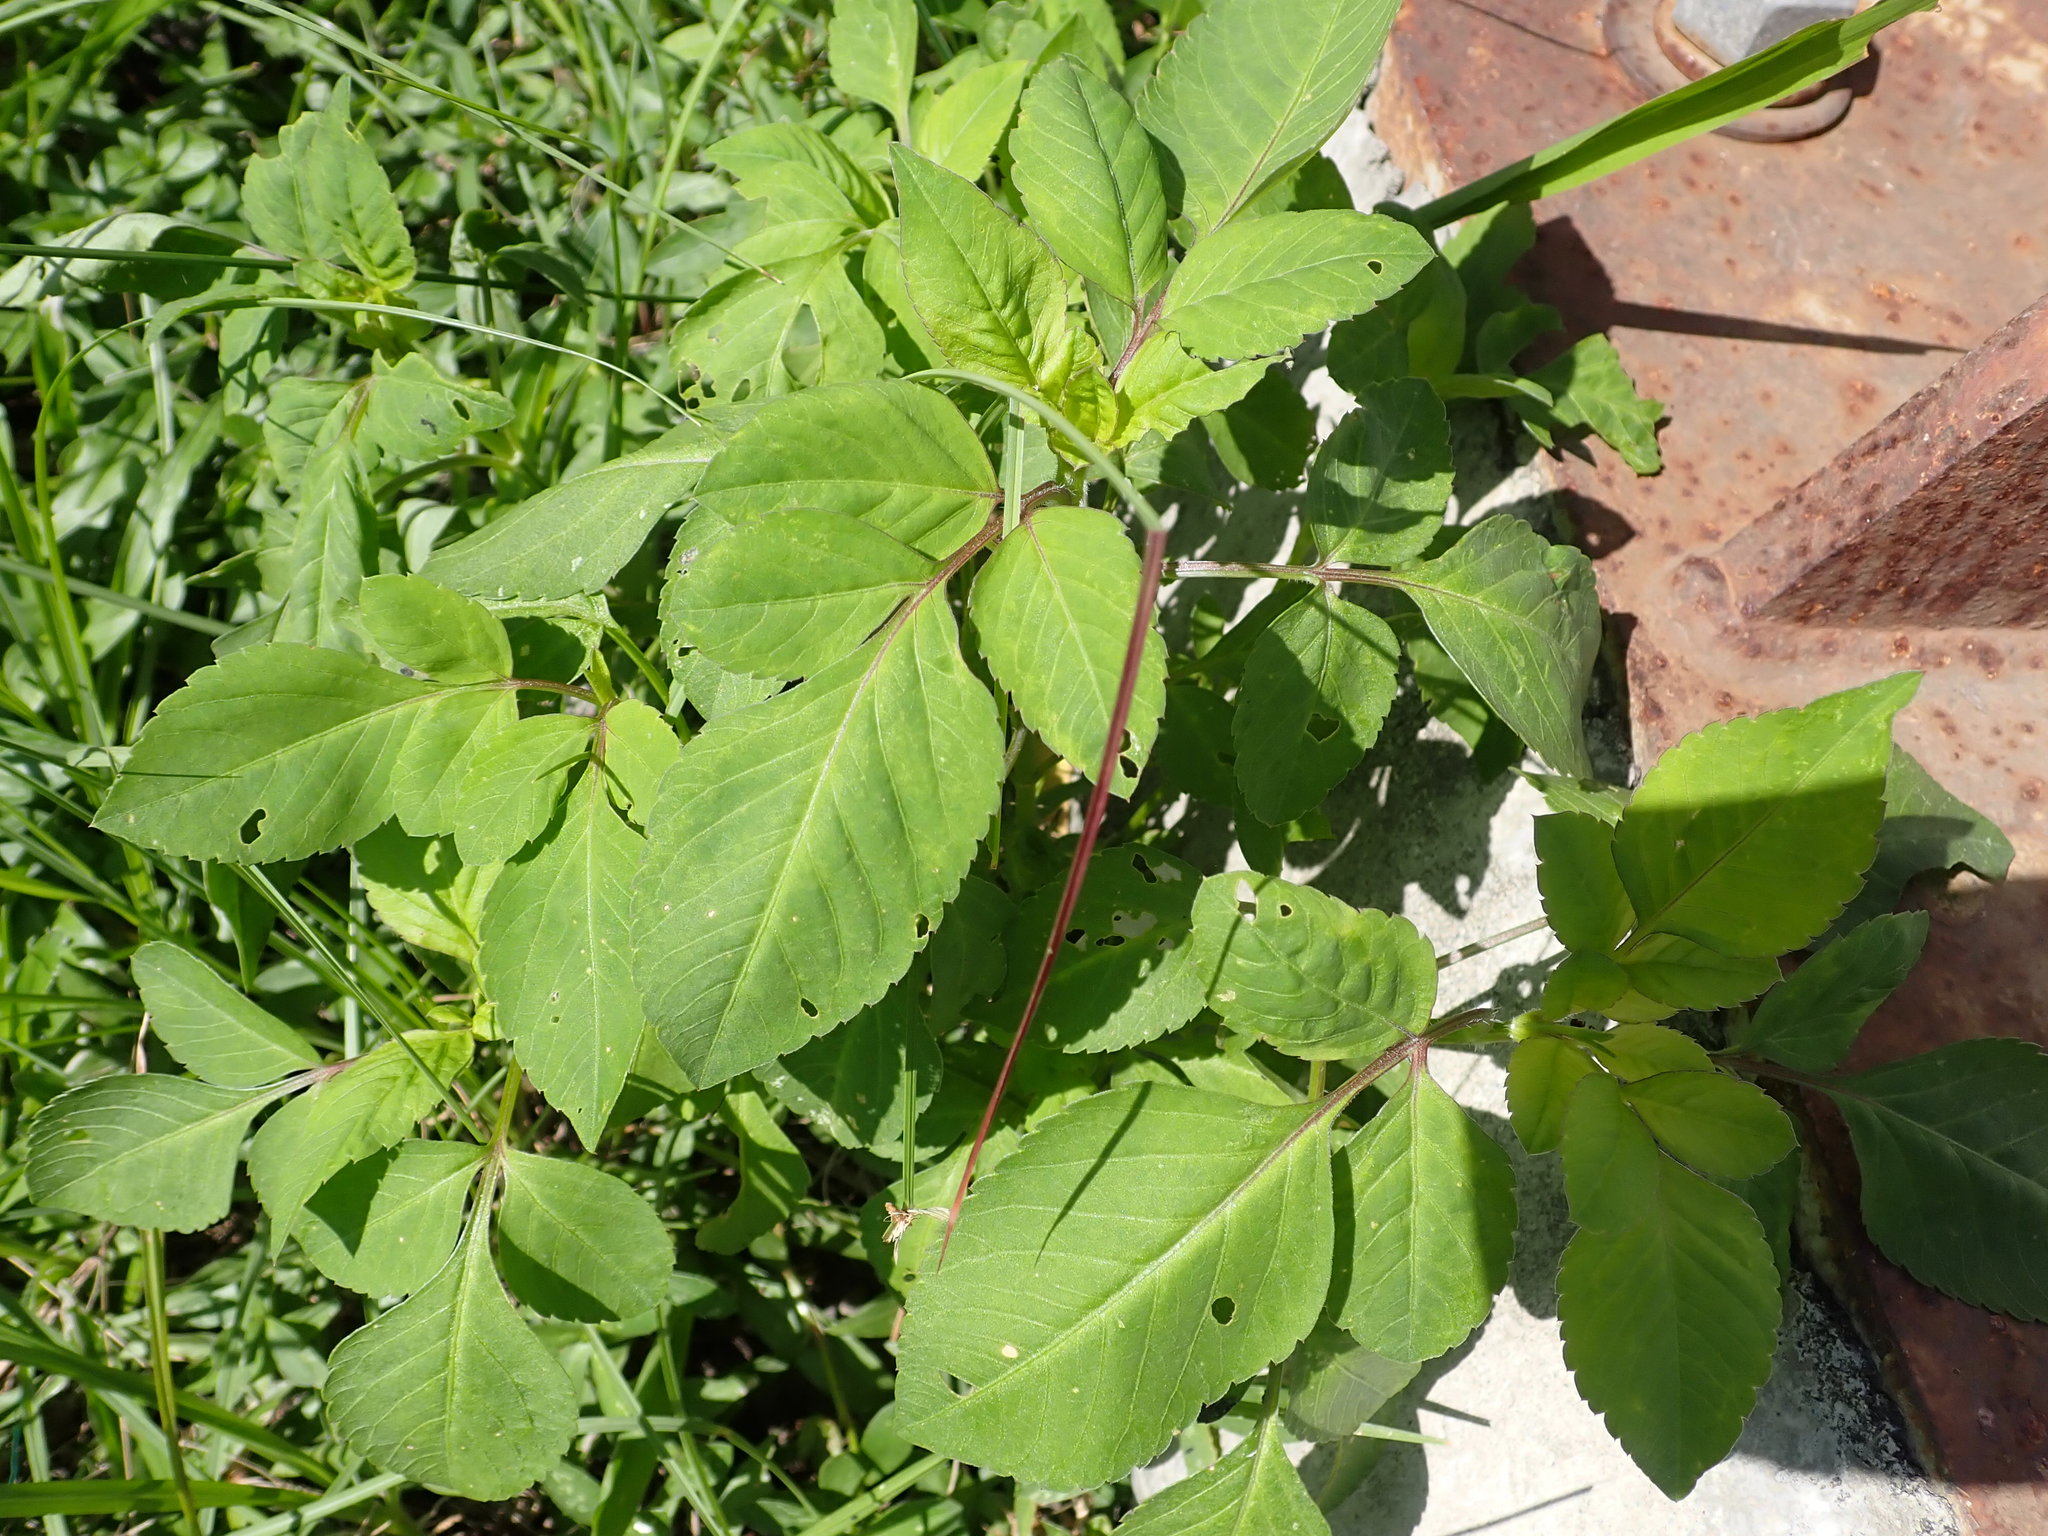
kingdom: Plantae
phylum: Tracheophyta
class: Magnoliopsida
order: Asterales
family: Asteraceae
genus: Bidens
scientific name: Bidens alba
